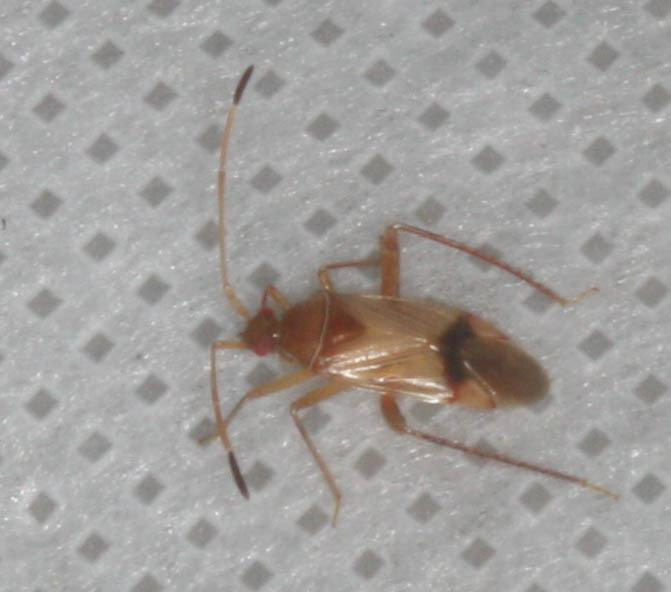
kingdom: Animalia
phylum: Arthropoda
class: Insecta
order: Hemiptera
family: Miridae
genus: Eustictus
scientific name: Eustictus pusillus
